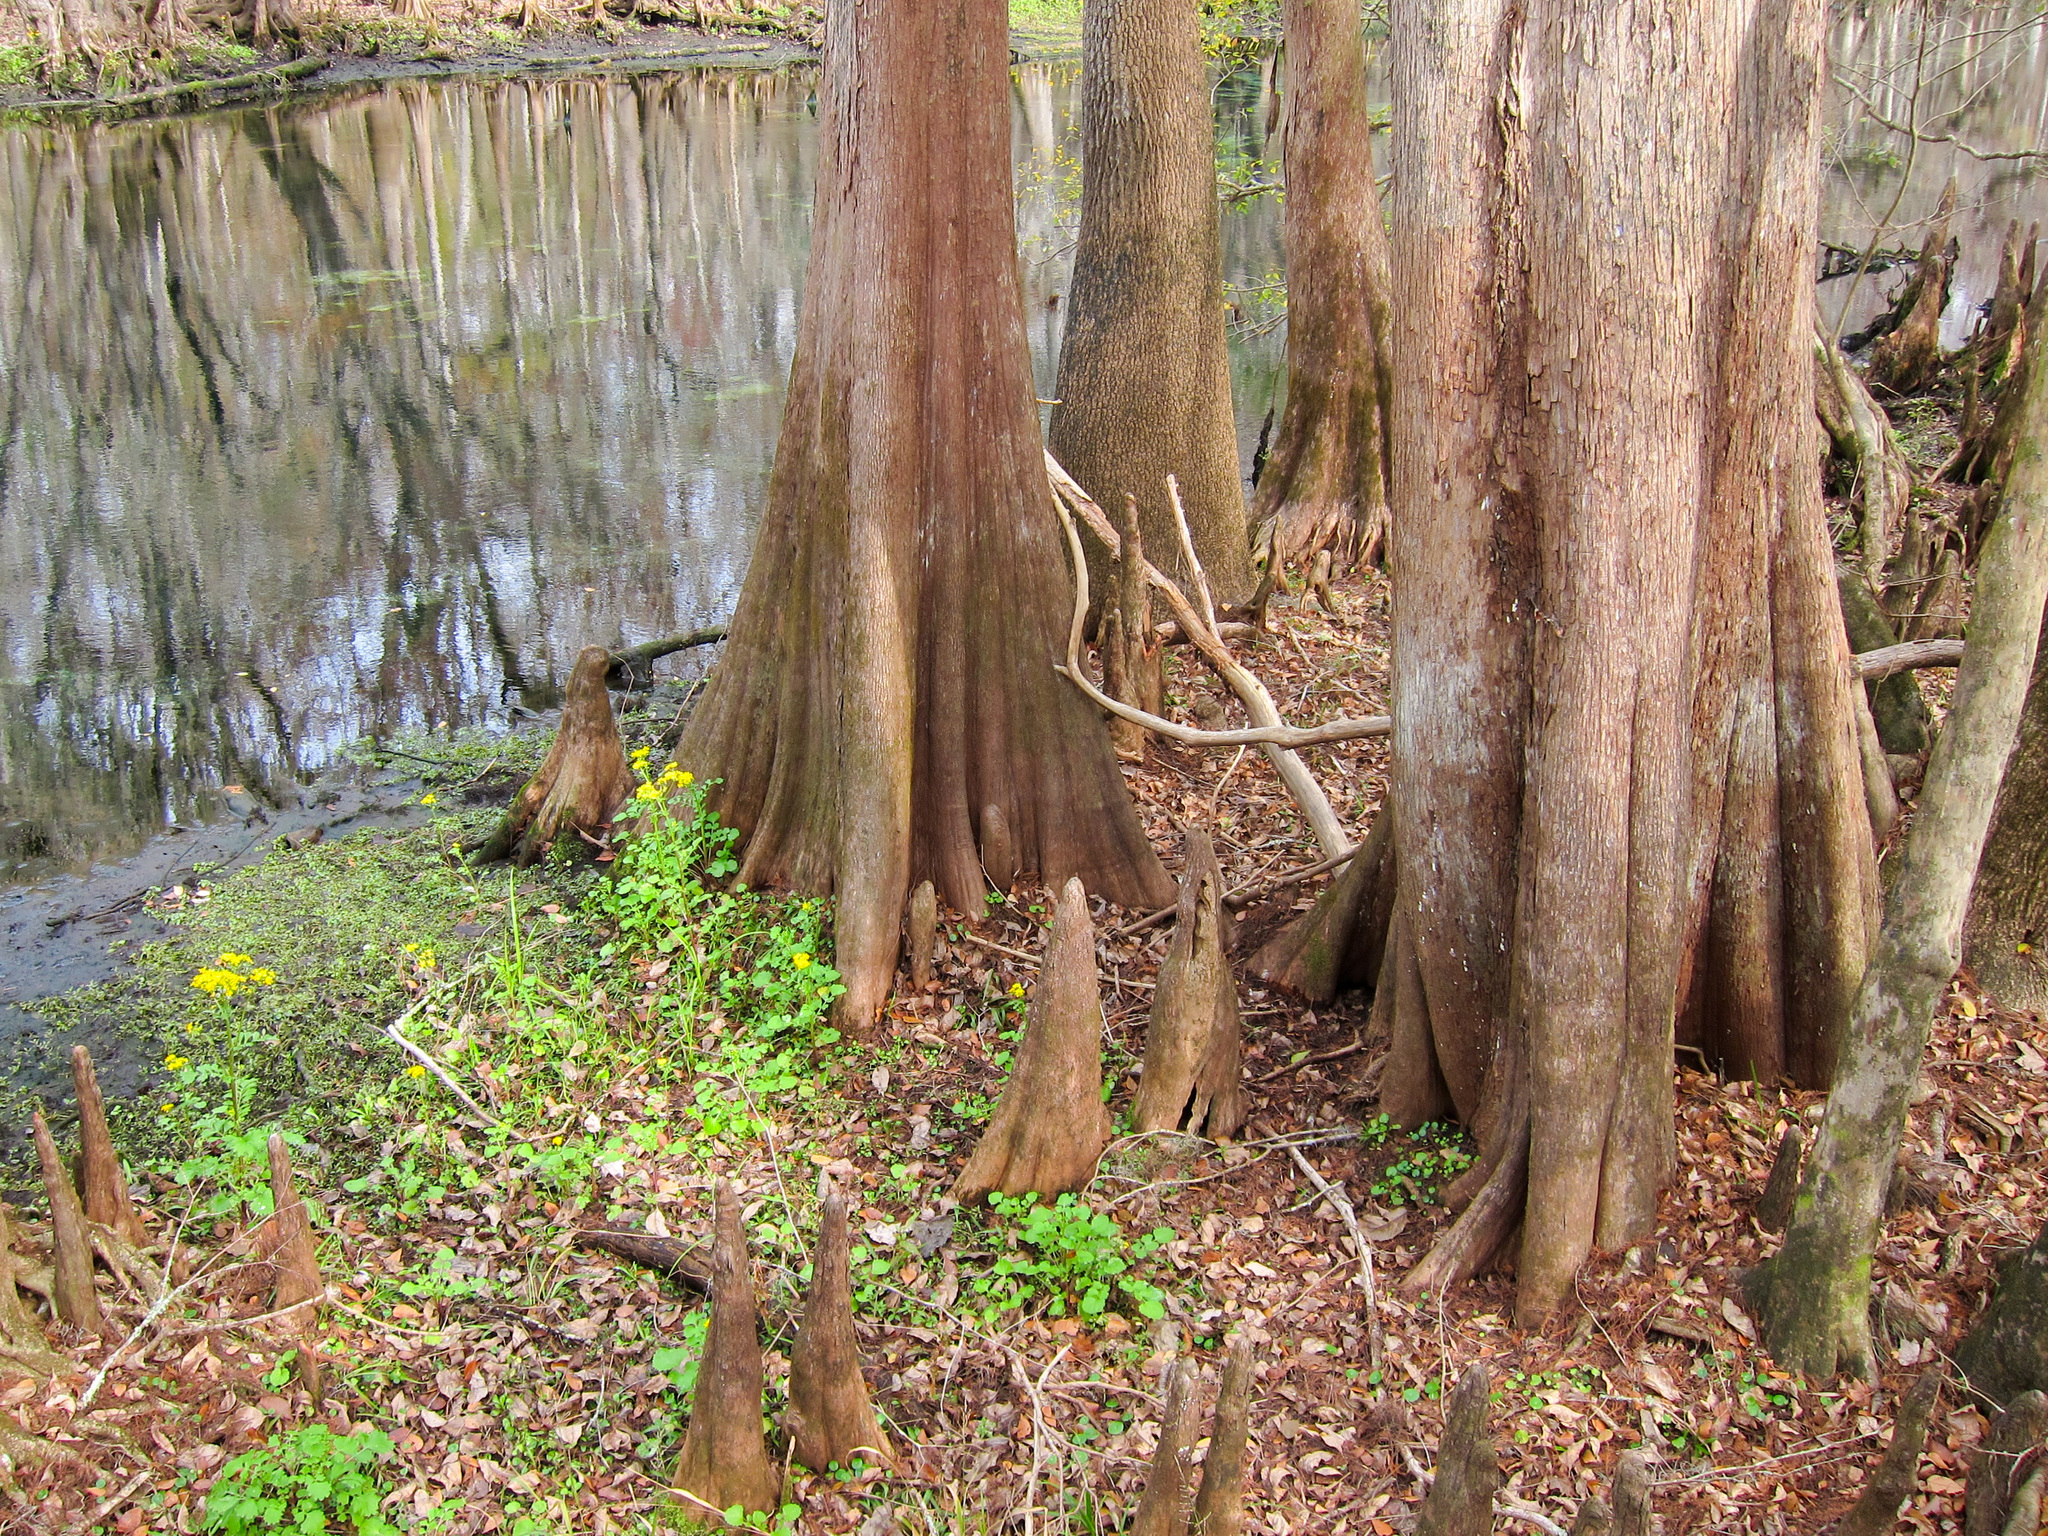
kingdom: Plantae
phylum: Tracheophyta
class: Pinopsida
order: Pinales
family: Cupressaceae
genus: Taxodium
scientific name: Taxodium distichum
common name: Bald cypress
